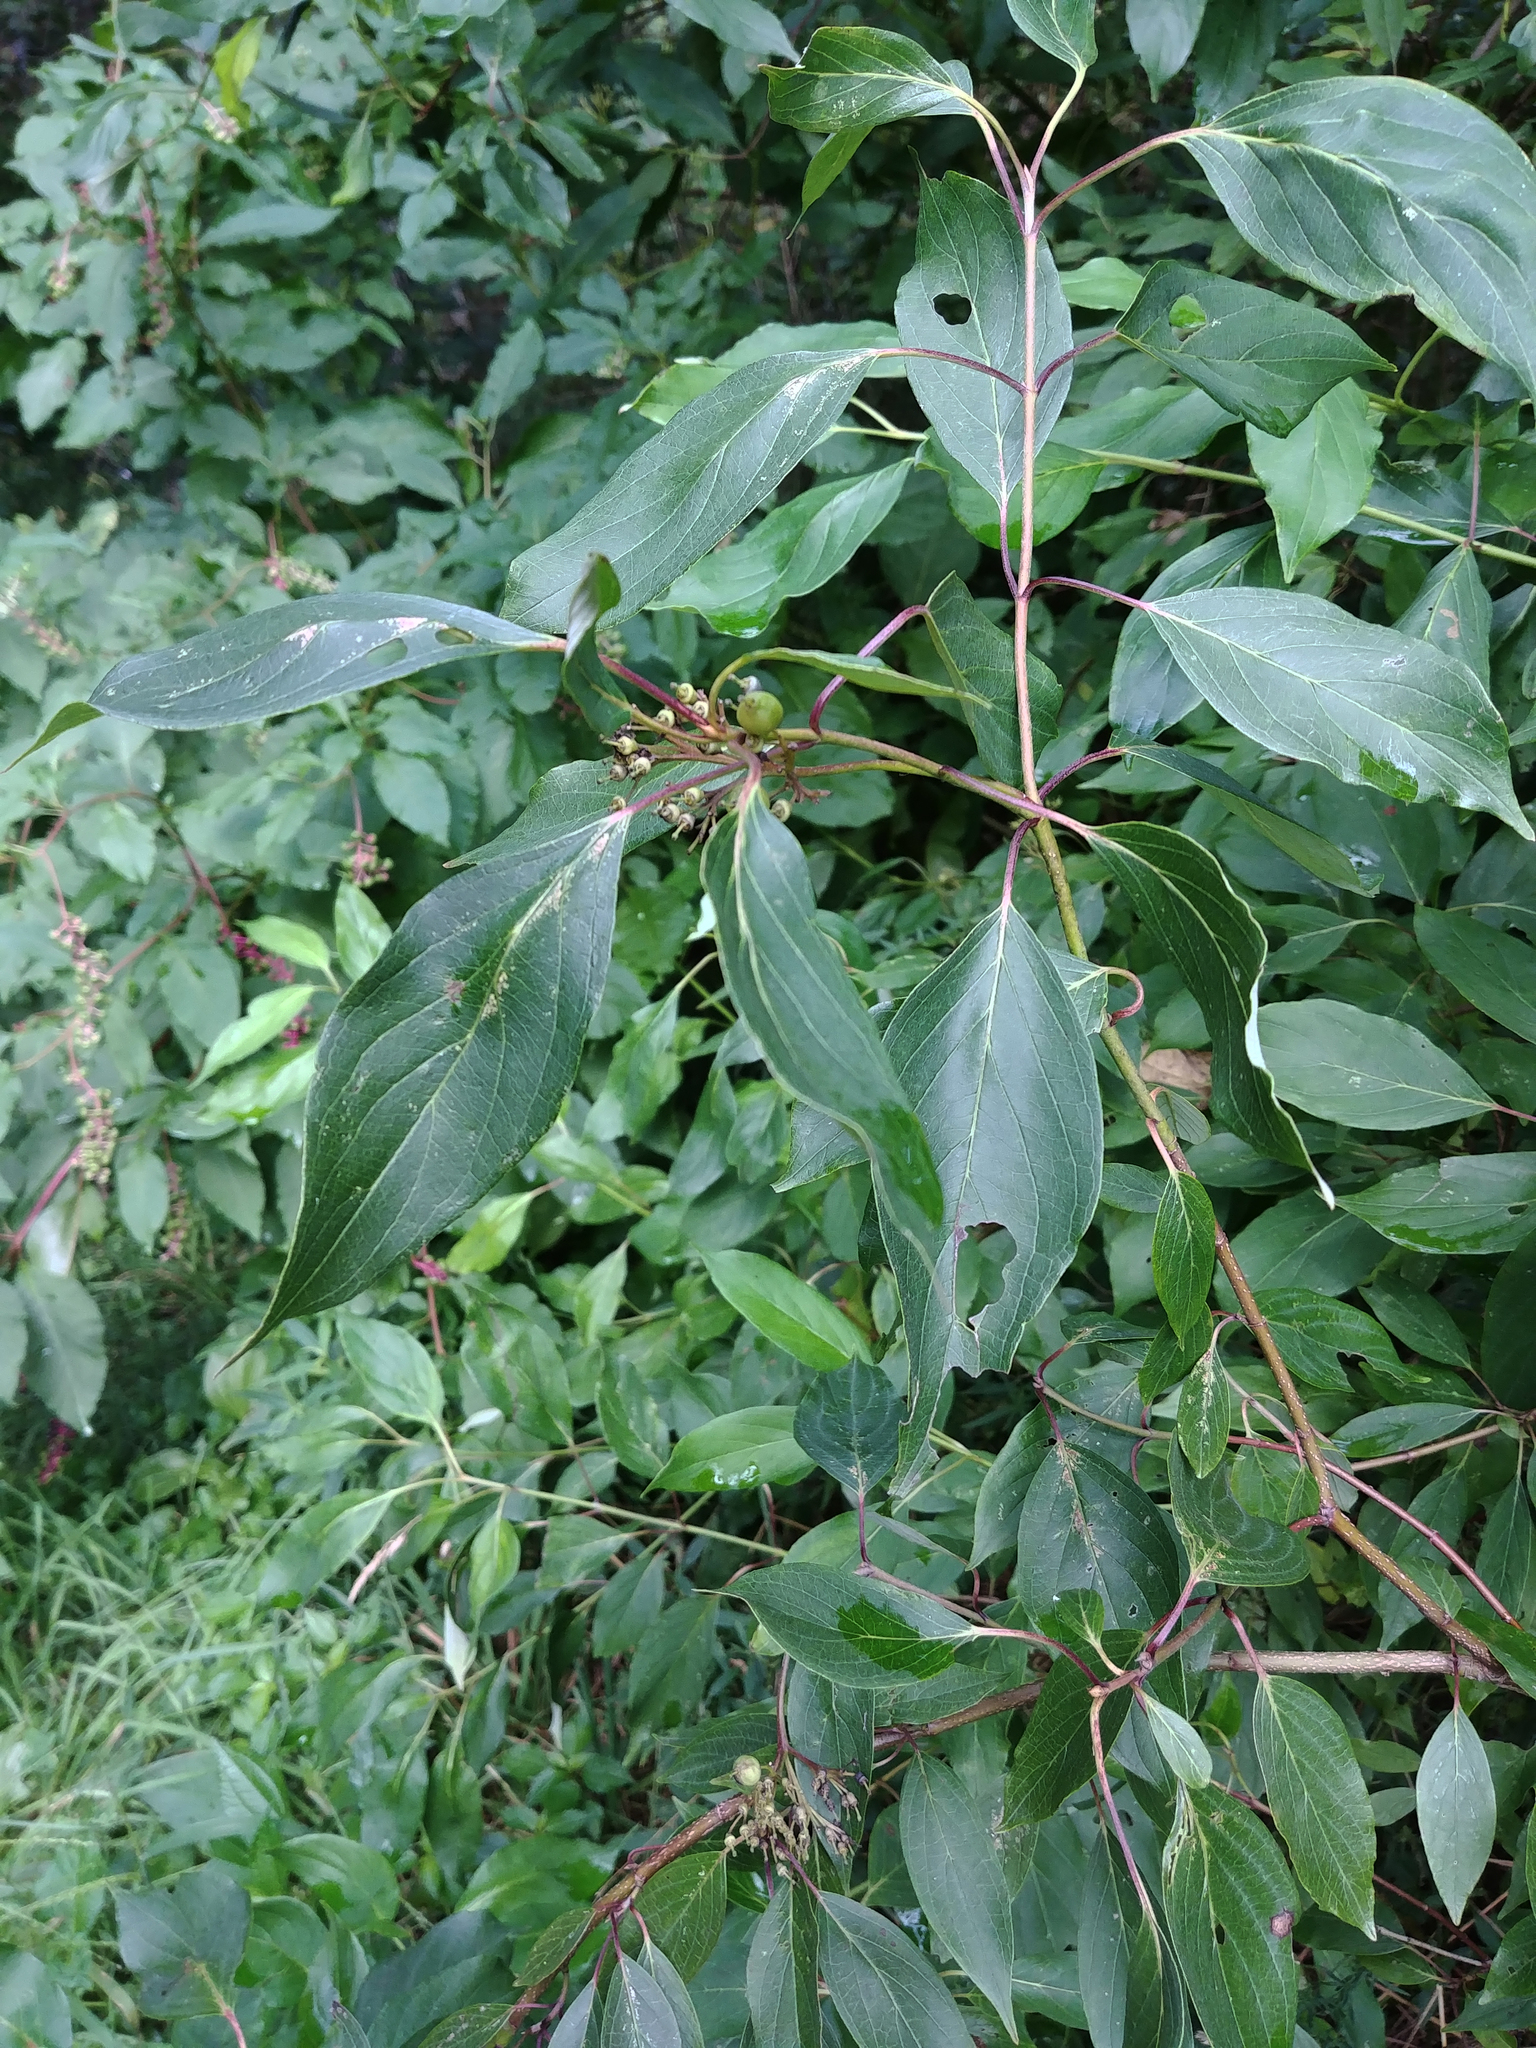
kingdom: Plantae
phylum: Tracheophyta
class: Magnoliopsida
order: Cornales
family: Cornaceae
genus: Cornus
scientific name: Cornus amomum
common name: Silky dogwood
